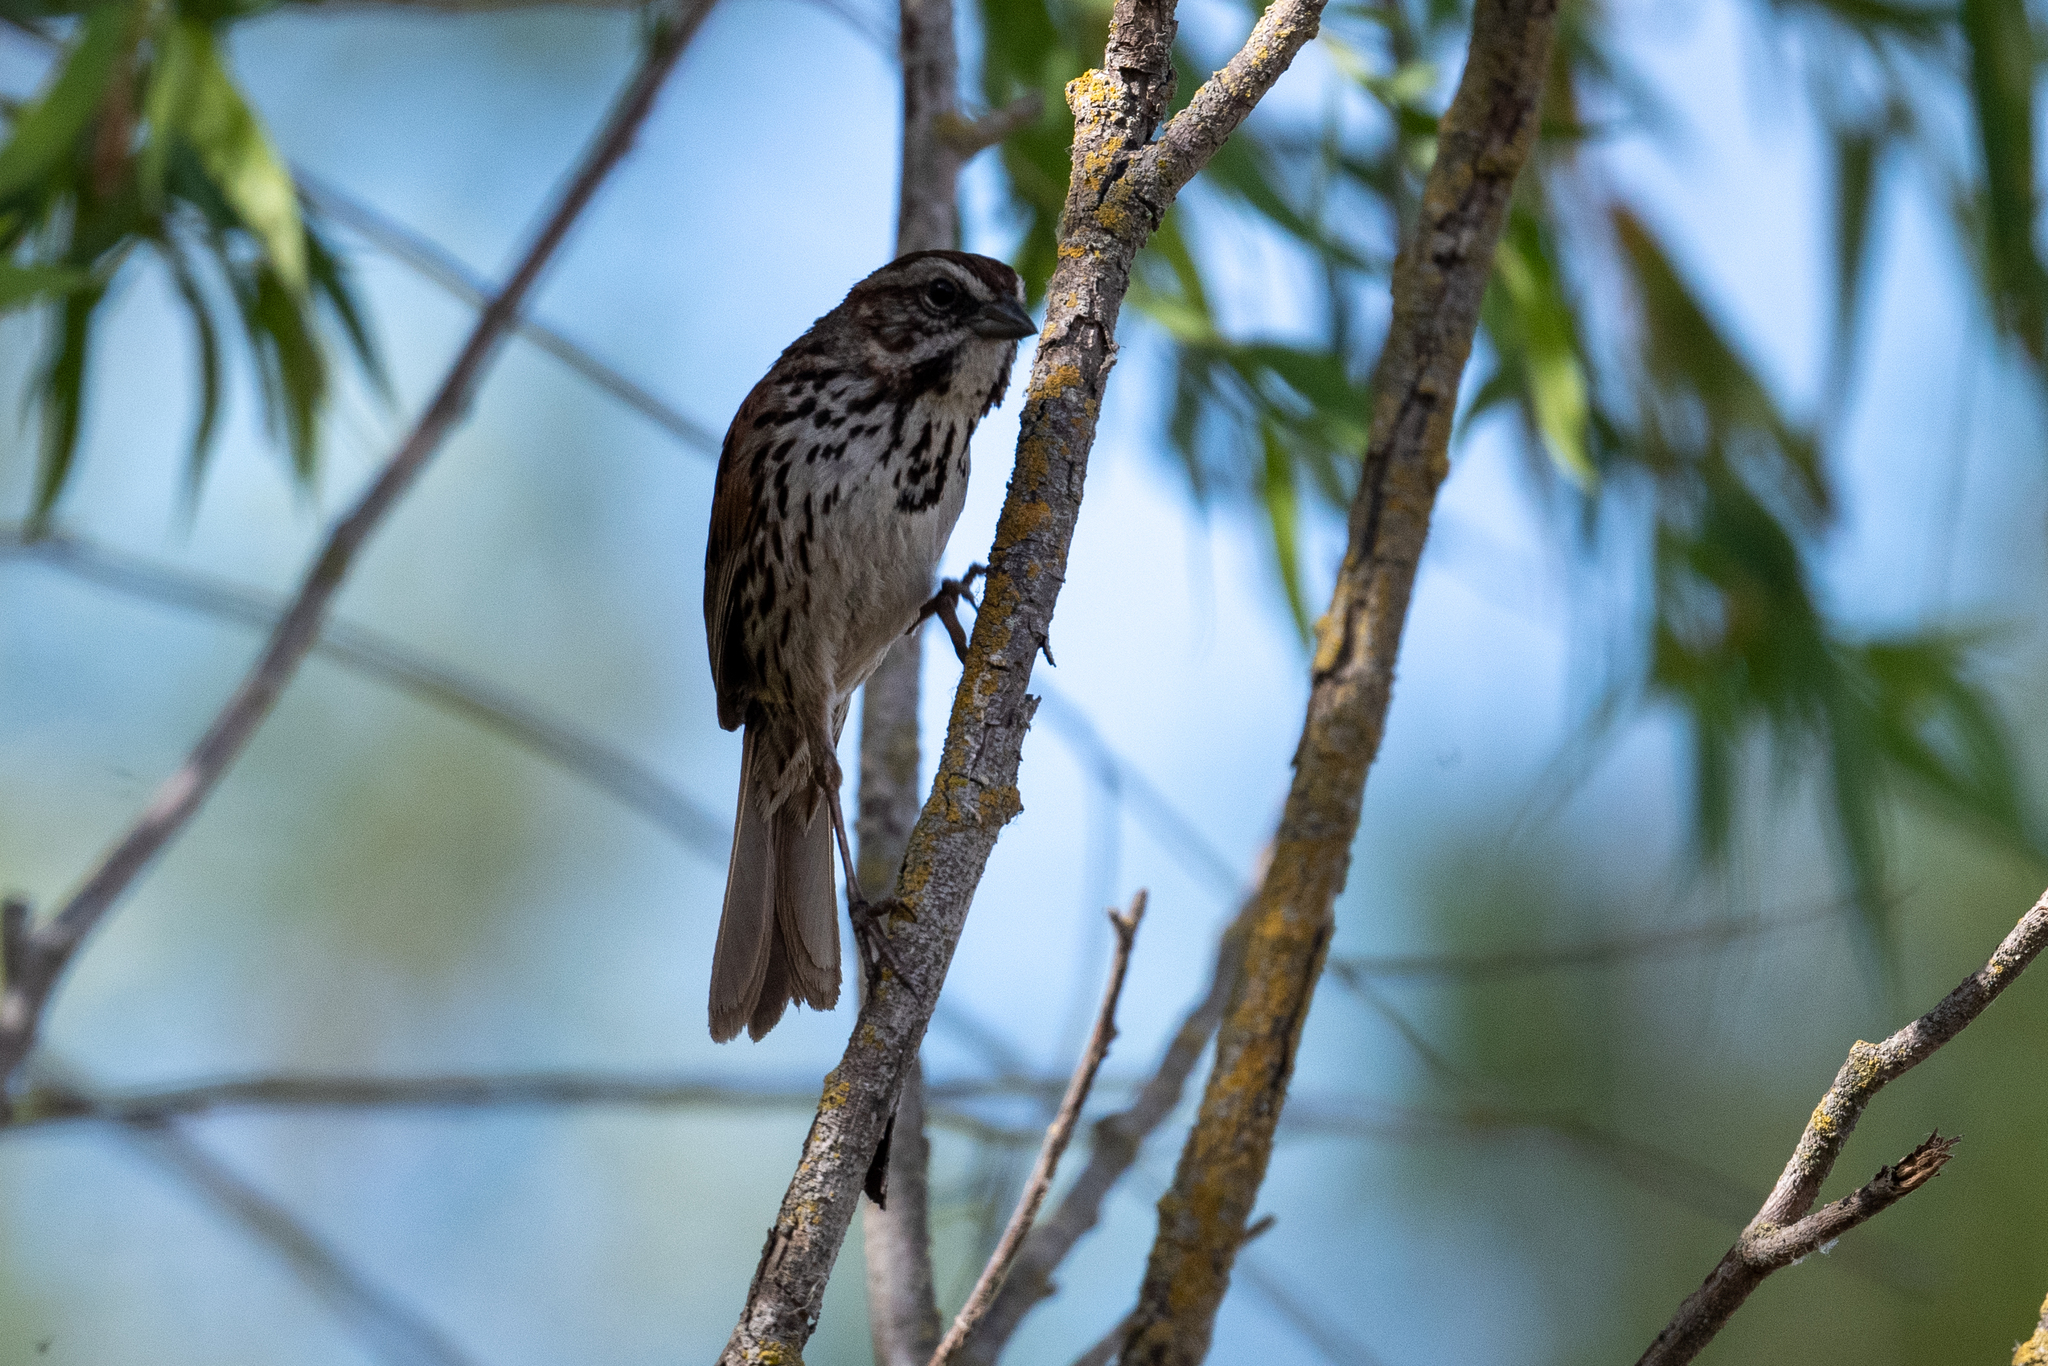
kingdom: Animalia
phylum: Chordata
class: Aves
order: Passeriformes
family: Passerellidae
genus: Melospiza
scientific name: Melospiza melodia
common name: Song sparrow
